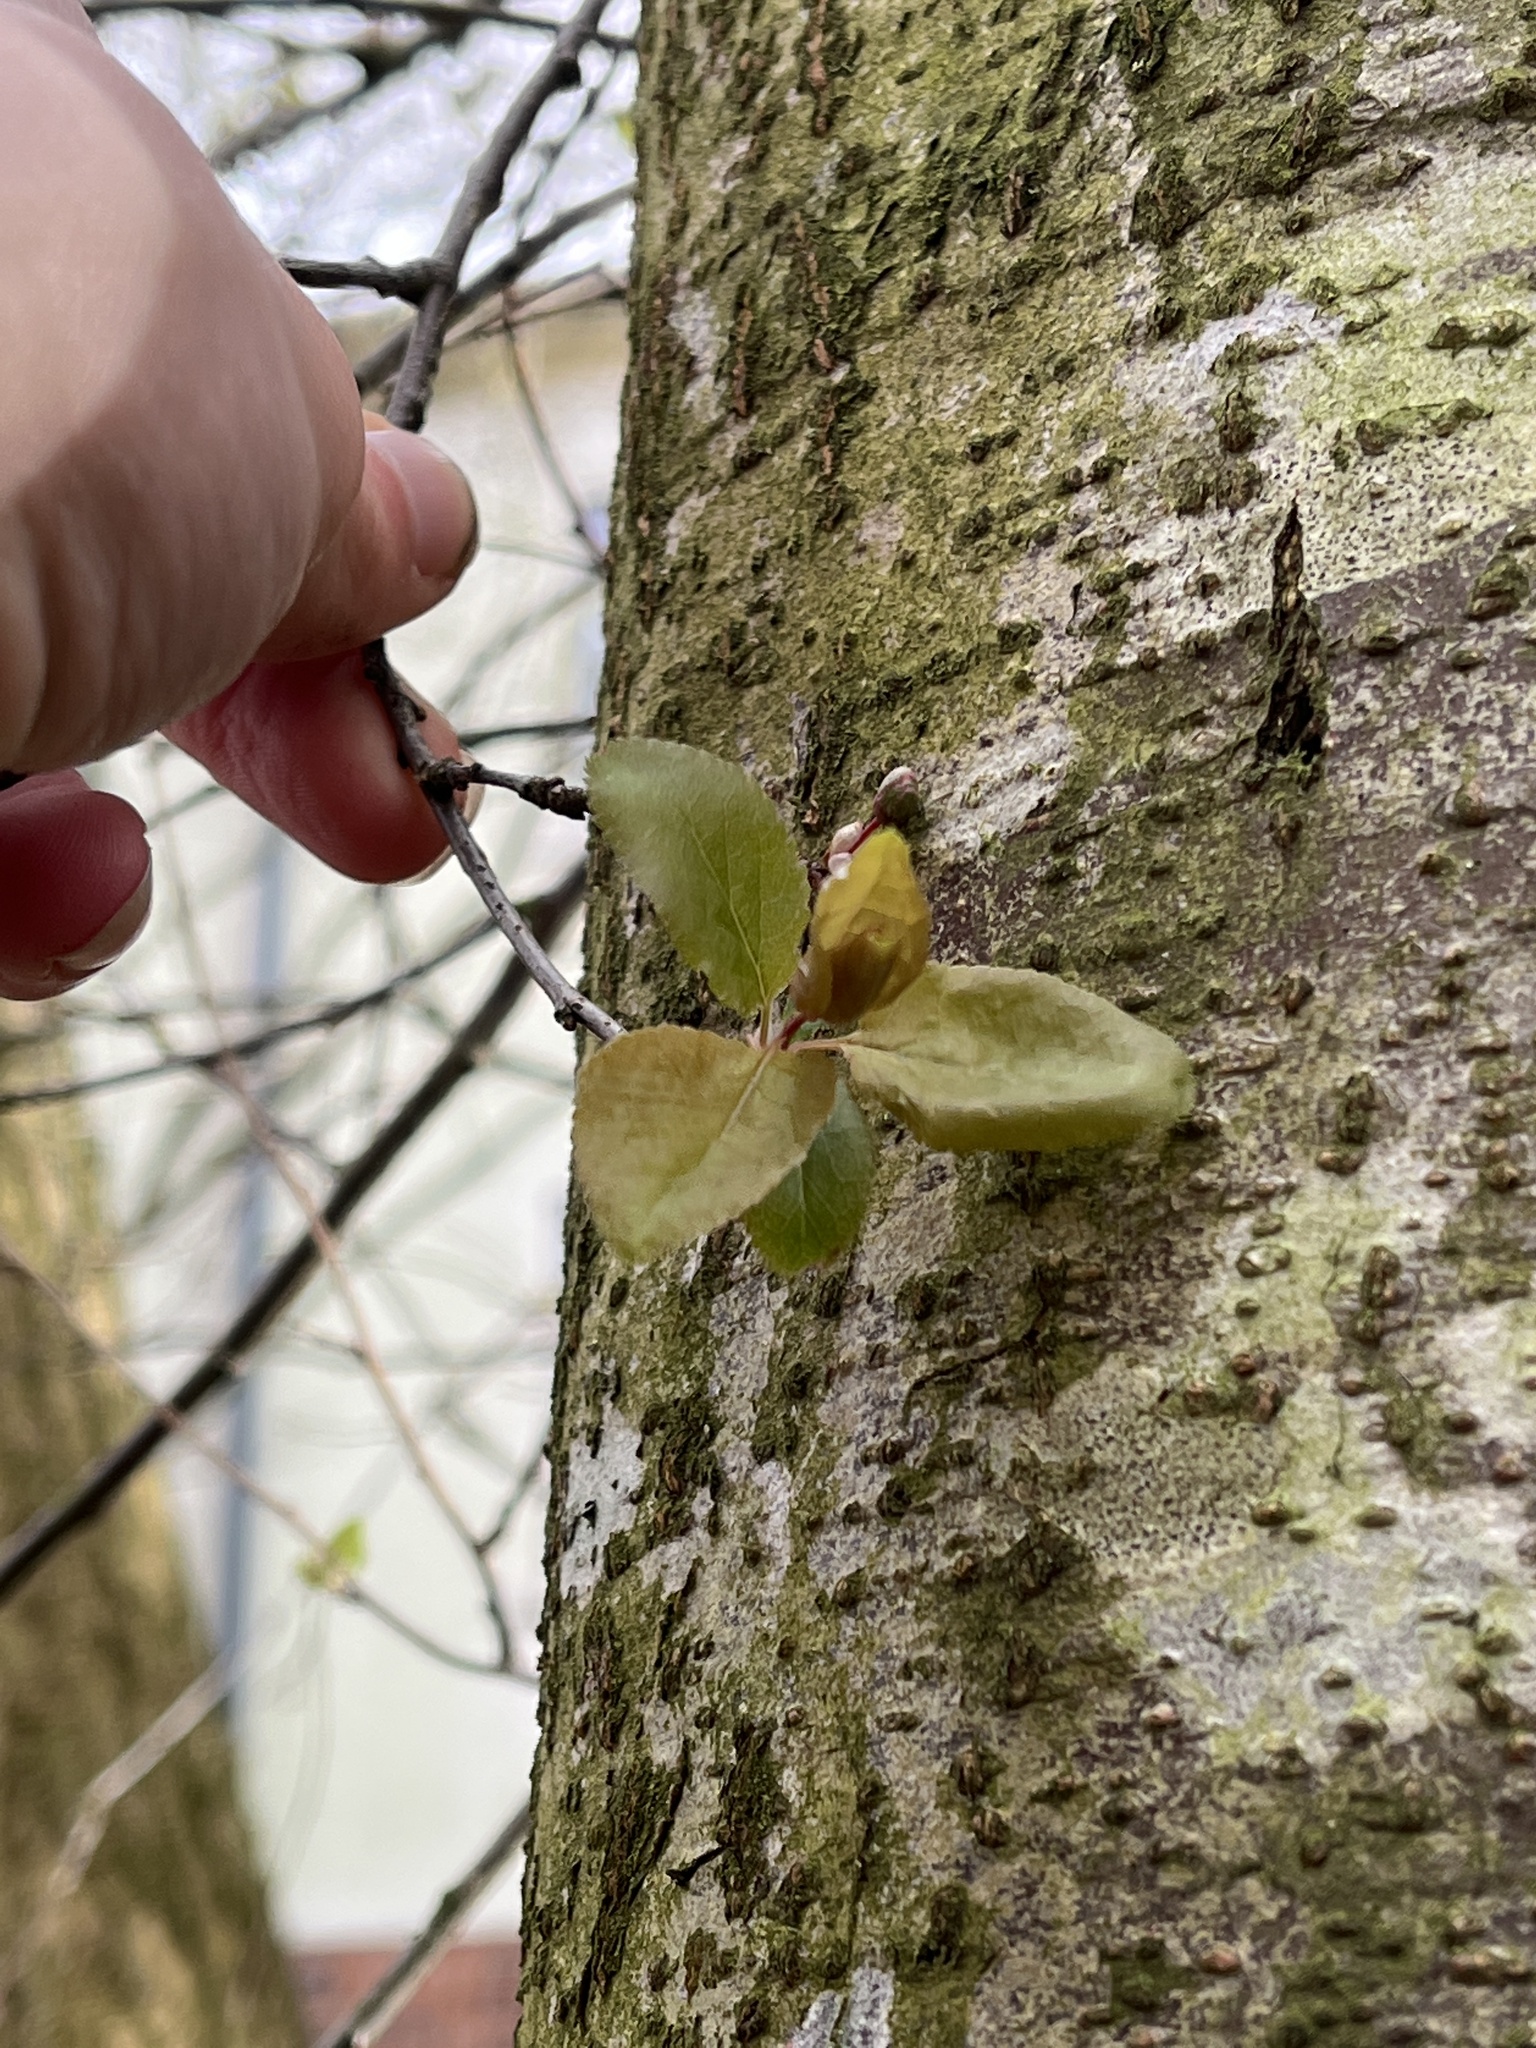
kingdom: Plantae
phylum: Tracheophyta
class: Magnoliopsida
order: Rosales
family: Rosaceae
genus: Prunus
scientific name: Prunus cerasifera
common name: Cherry plum
